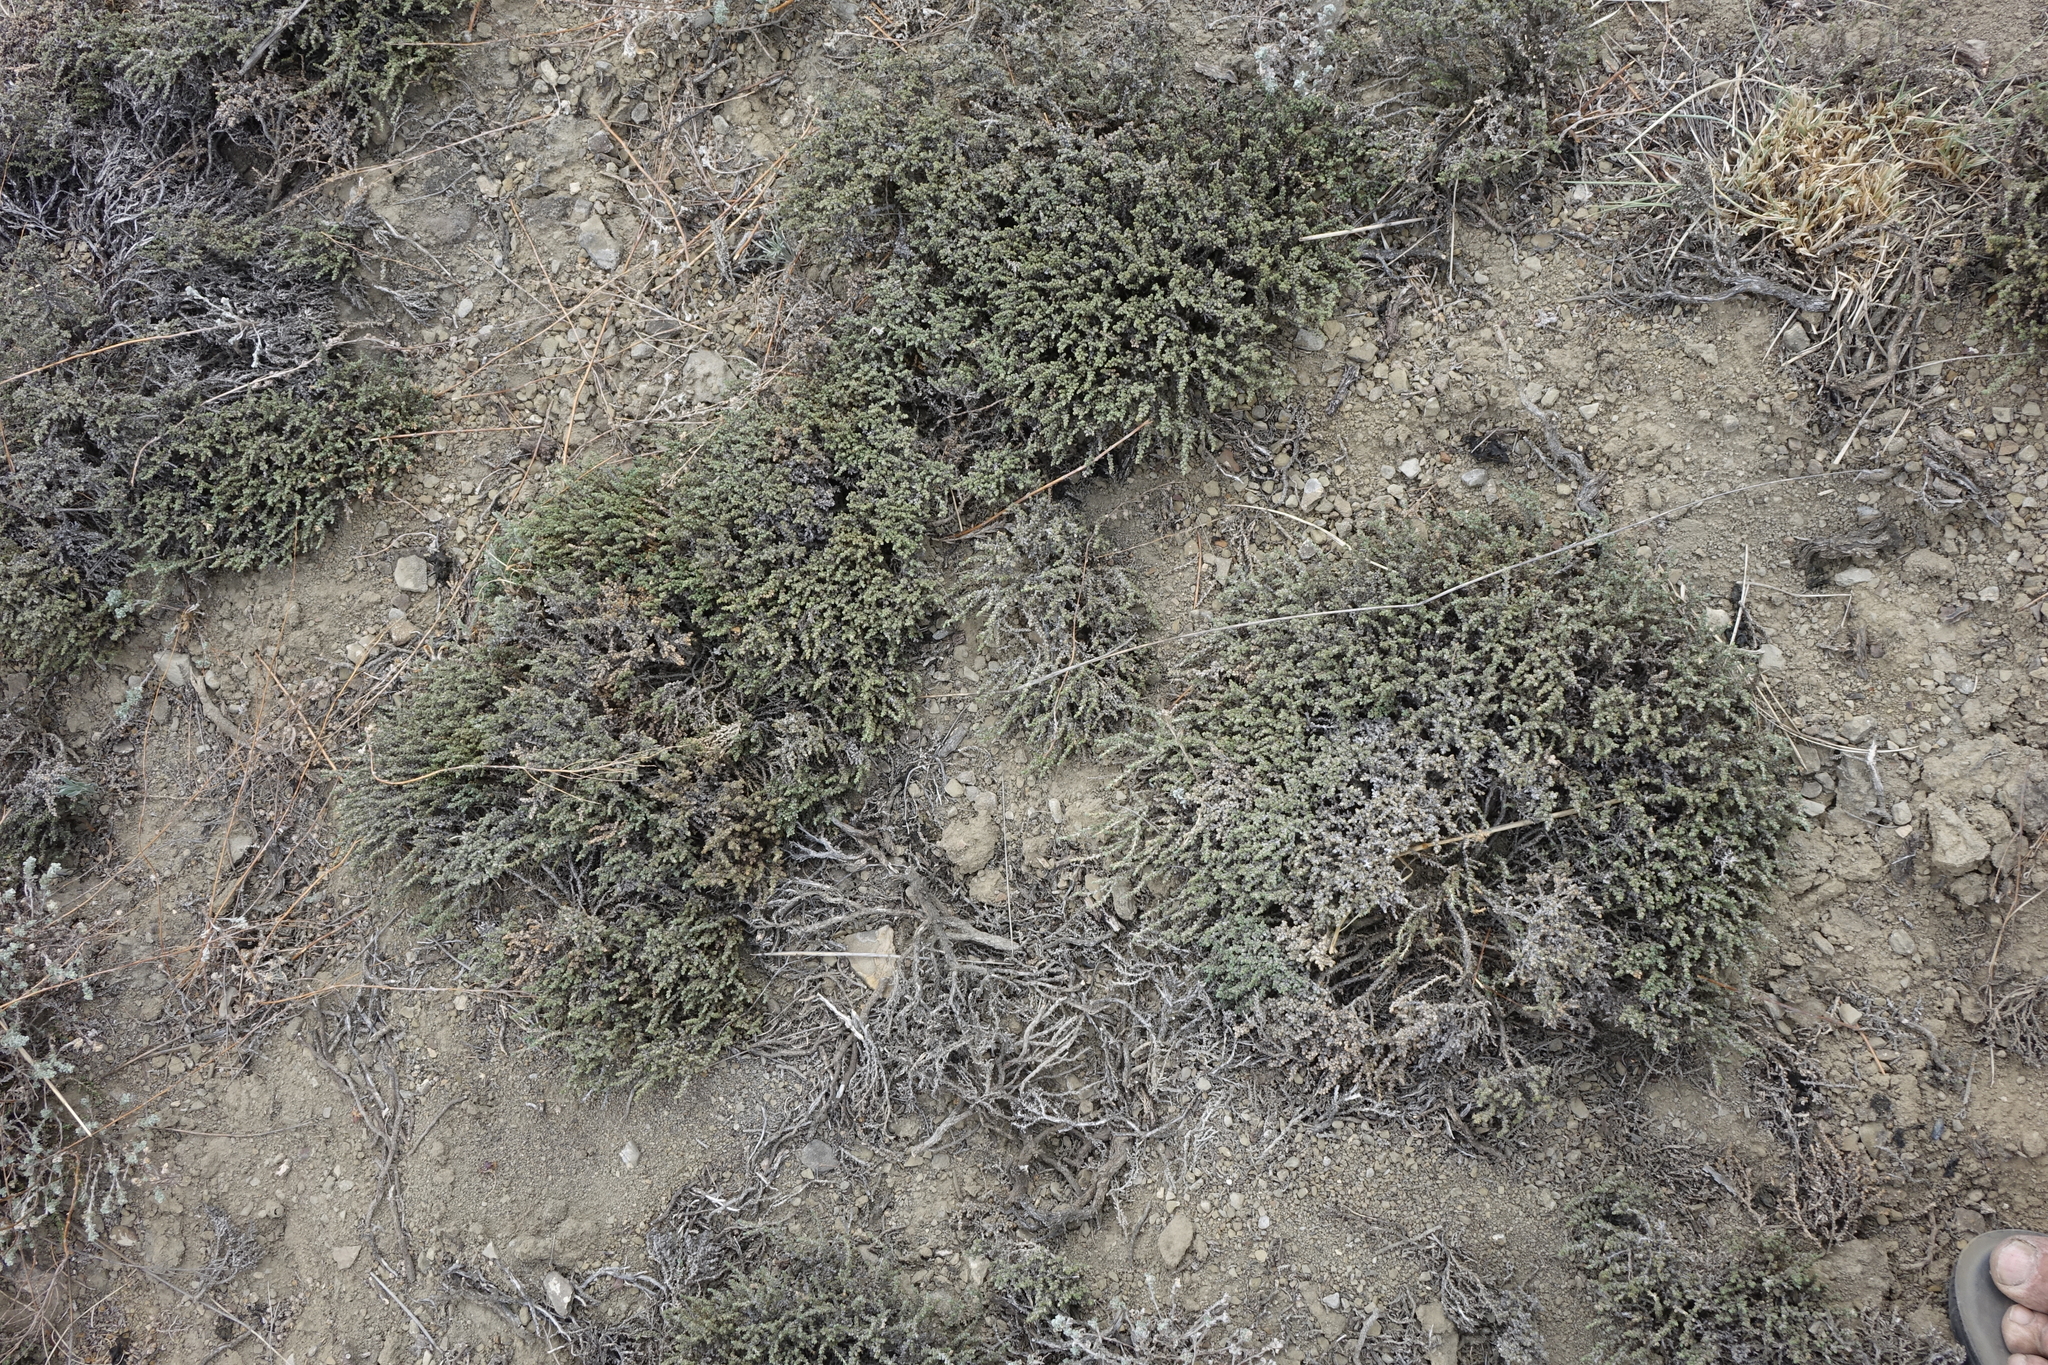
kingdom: Plantae
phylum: Tracheophyta
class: Magnoliopsida
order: Caryophyllales
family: Amaranthaceae
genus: Nanophyton
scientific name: Nanophyton grubovii
